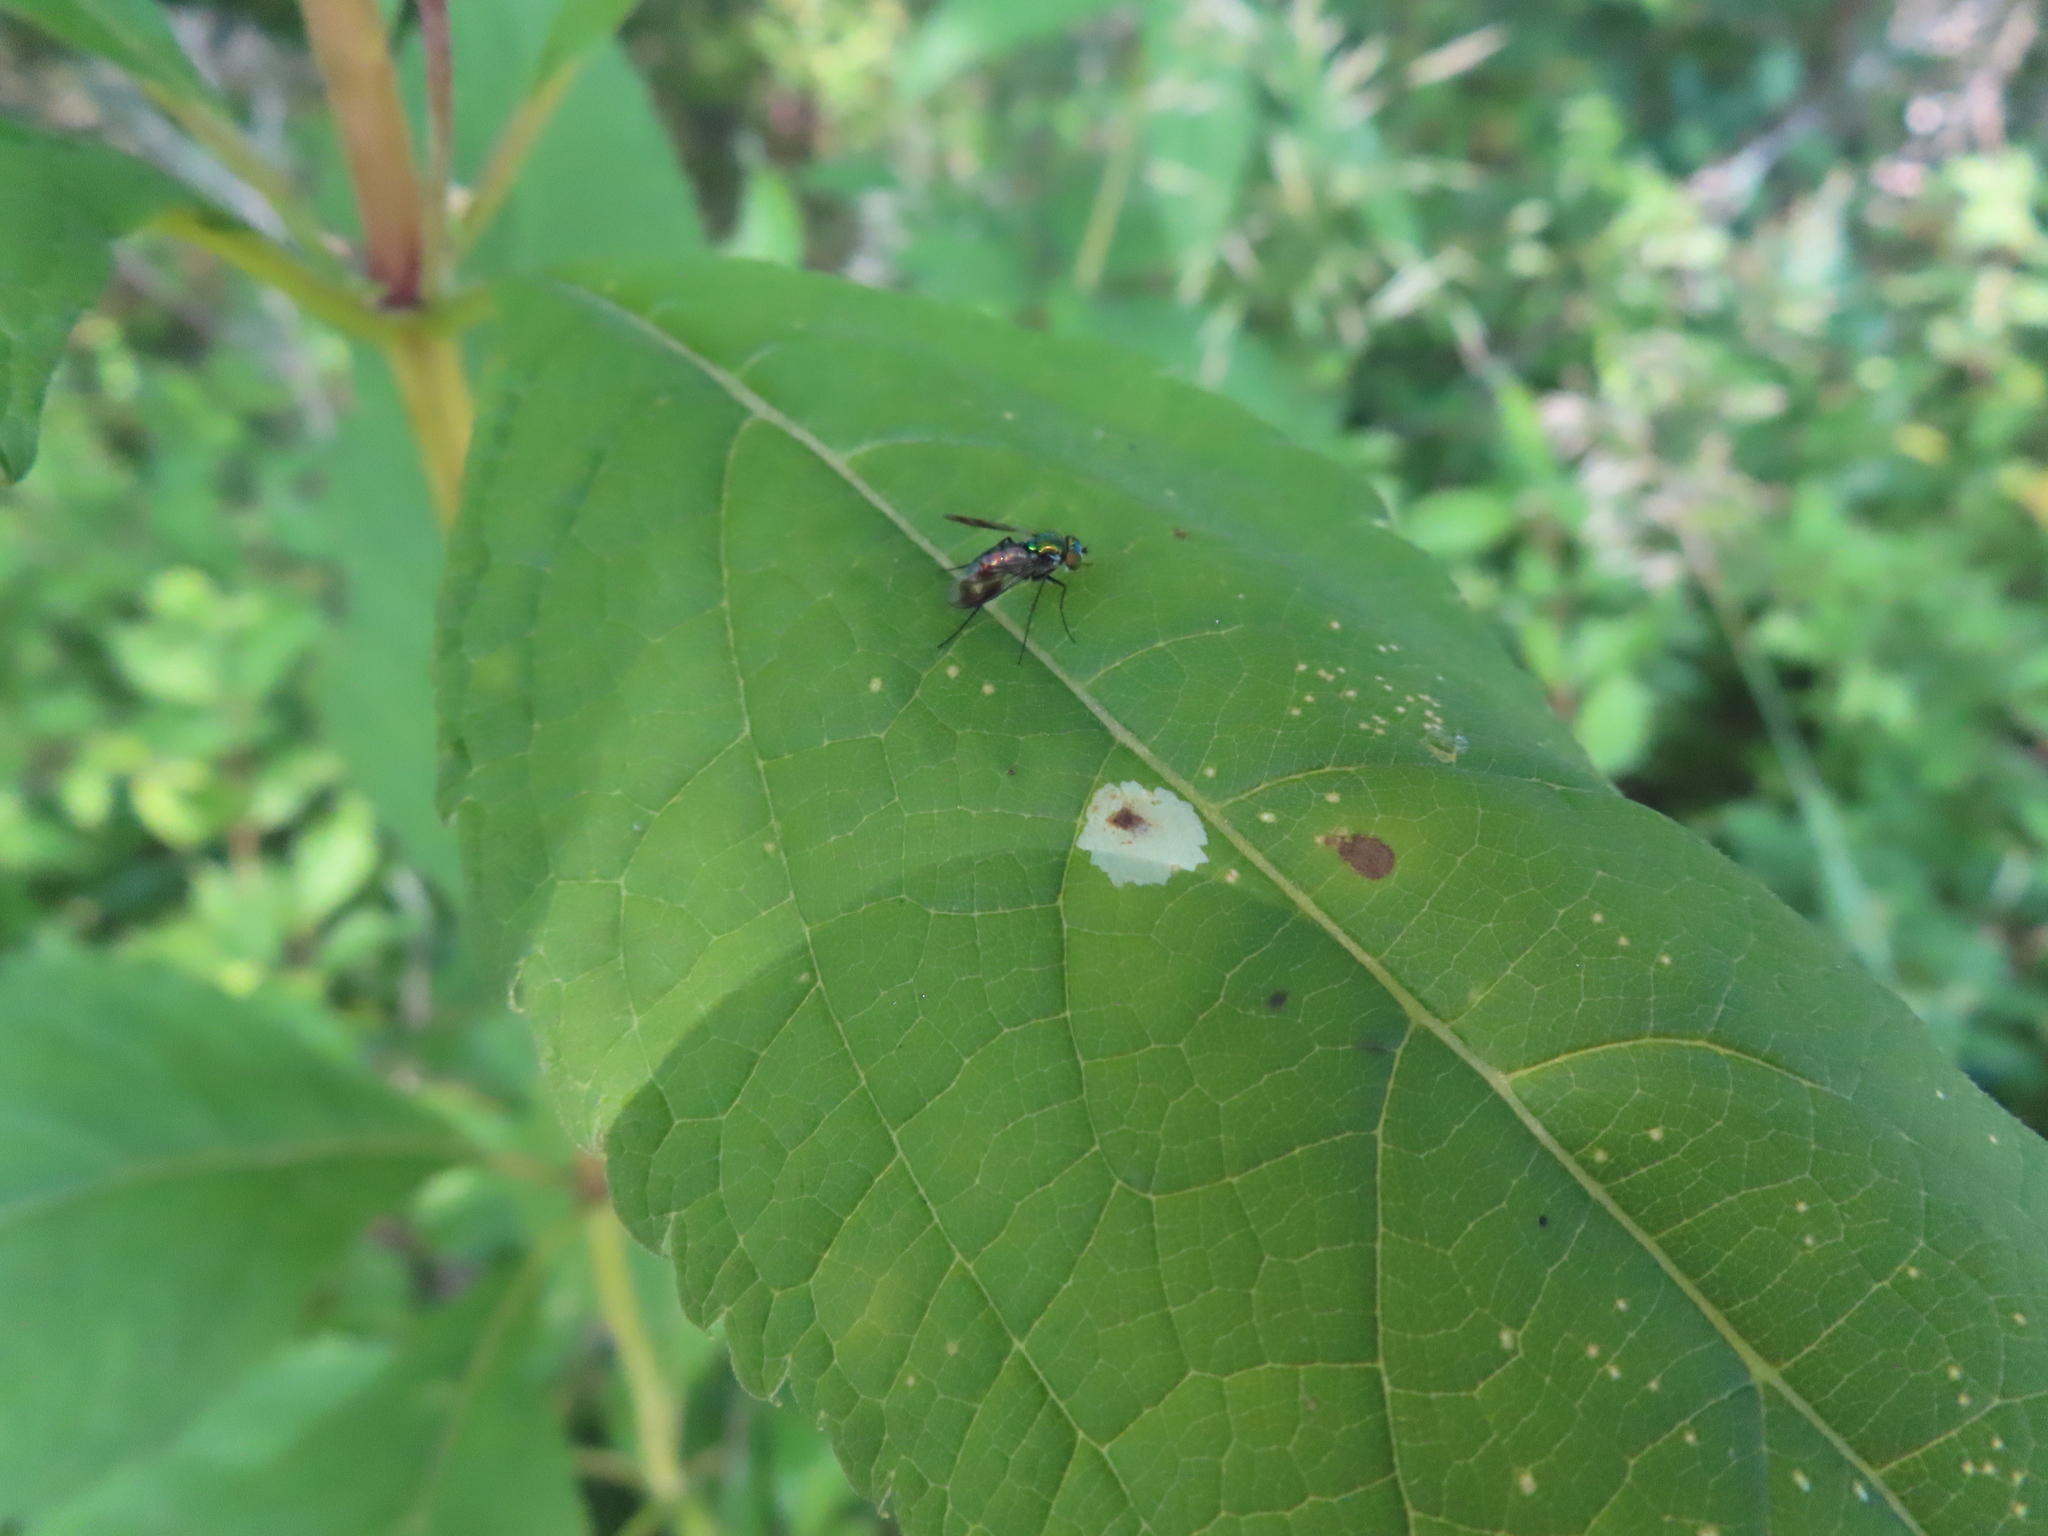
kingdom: Animalia
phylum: Arthropoda
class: Insecta
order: Diptera
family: Dolichopodidae
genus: Condylostylus
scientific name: Condylostylus patibulatus
